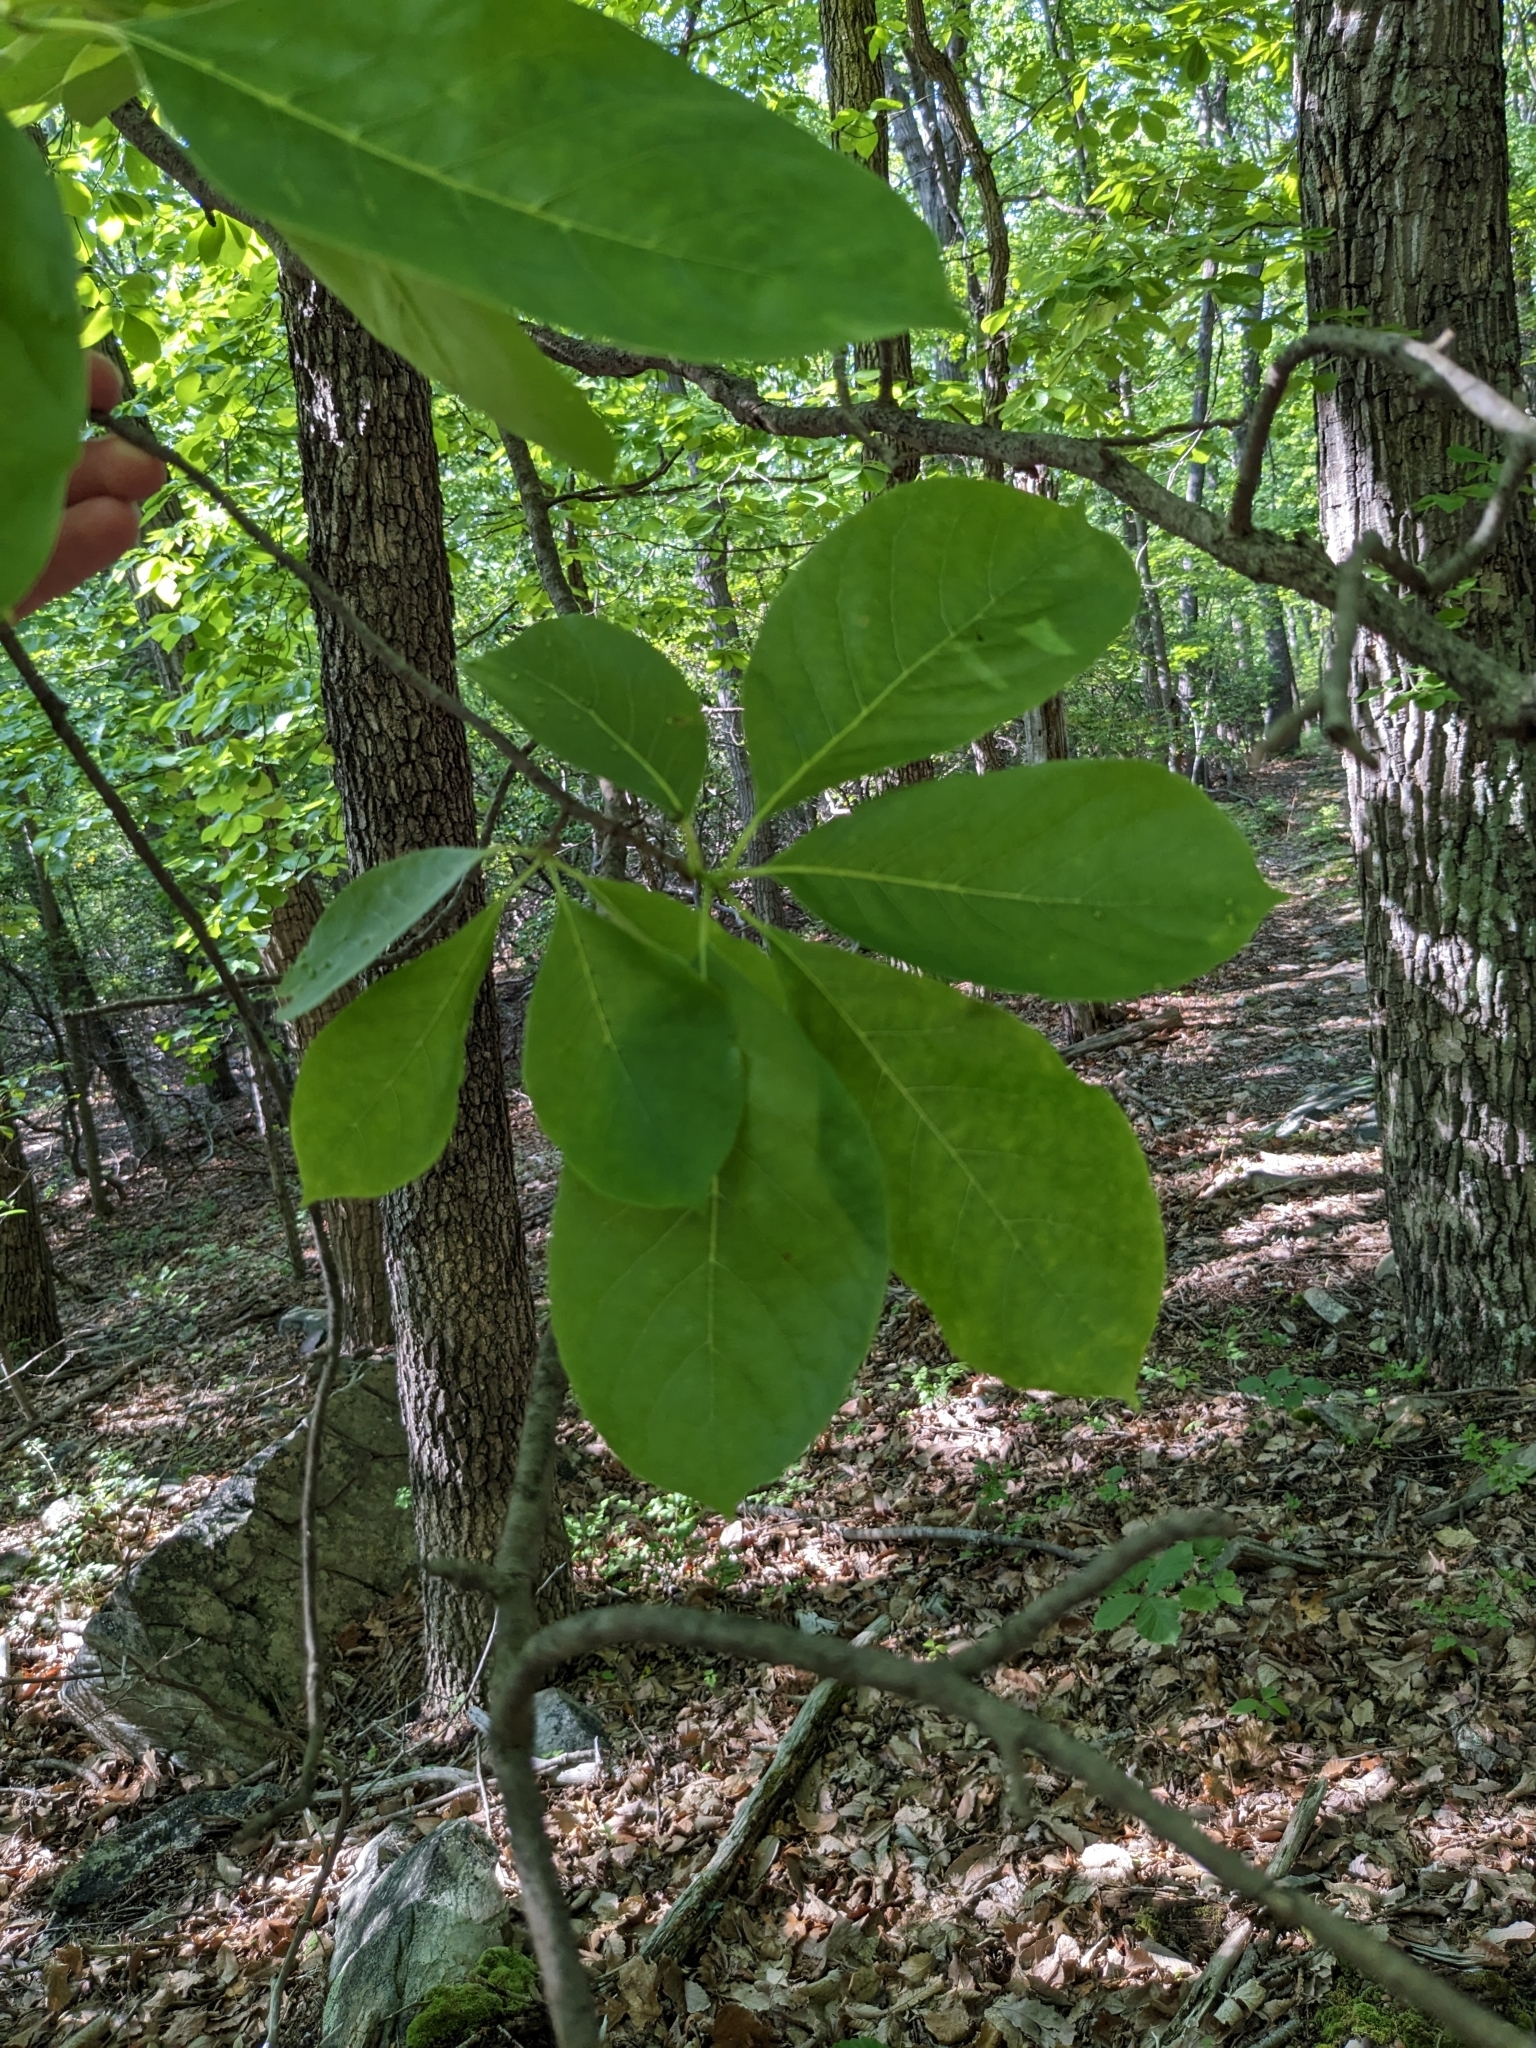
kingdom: Plantae
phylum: Tracheophyta
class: Magnoliopsida
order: Cornales
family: Nyssaceae
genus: Nyssa
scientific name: Nyssa sylvatica
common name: Black tupelo
